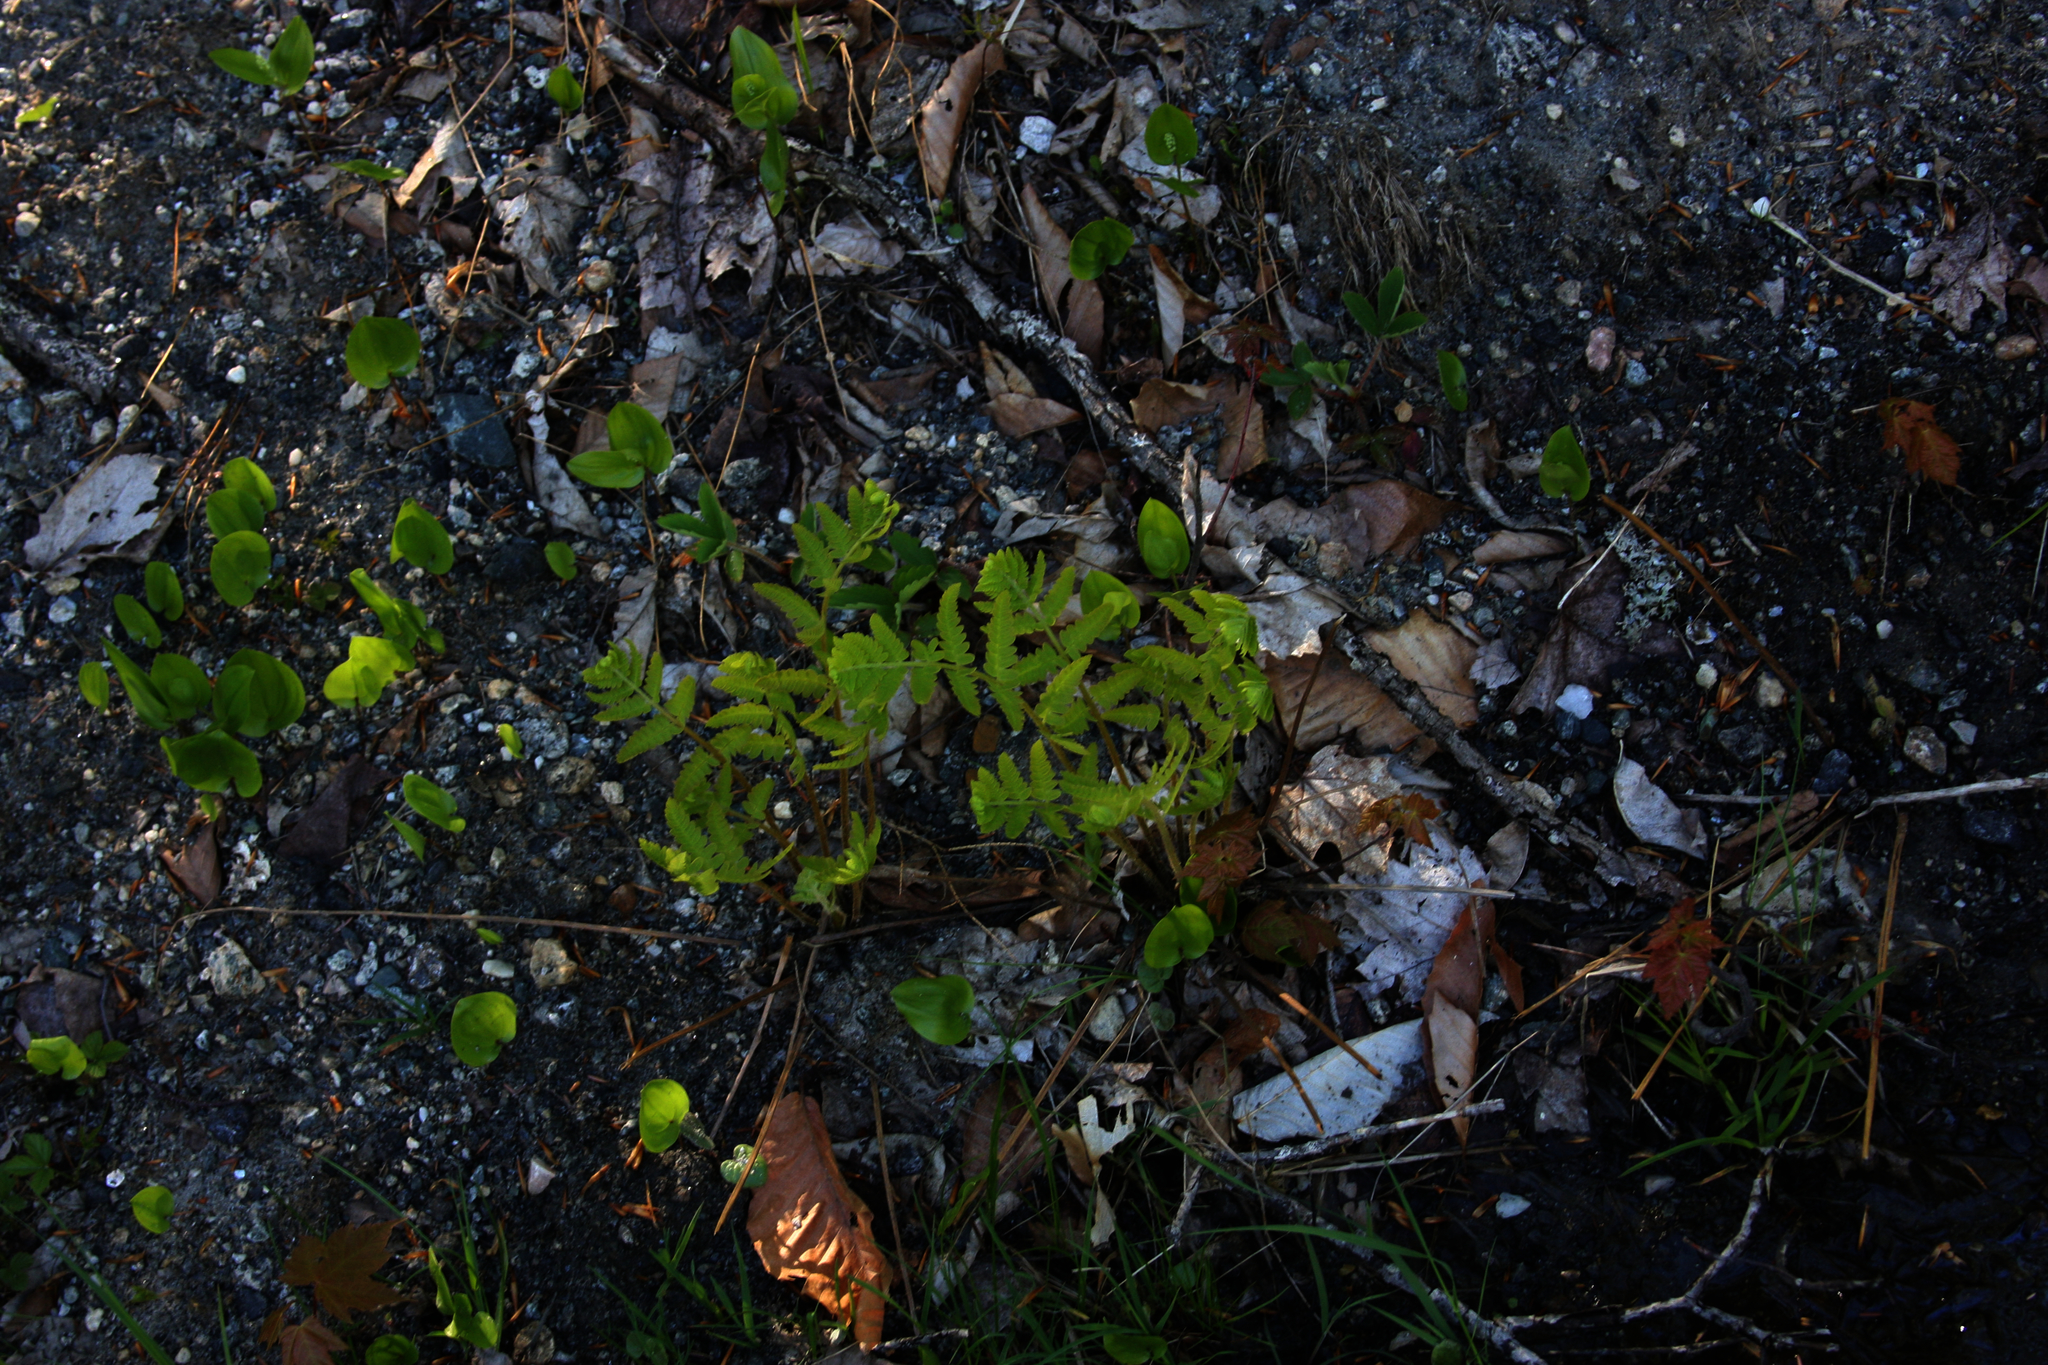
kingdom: Plantae
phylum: Tracheophyta
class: Liliopsida
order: Asparagales
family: Asparagaceae
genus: Maianthemum
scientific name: Maianthemum canadense
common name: False lily-of-the-valley
